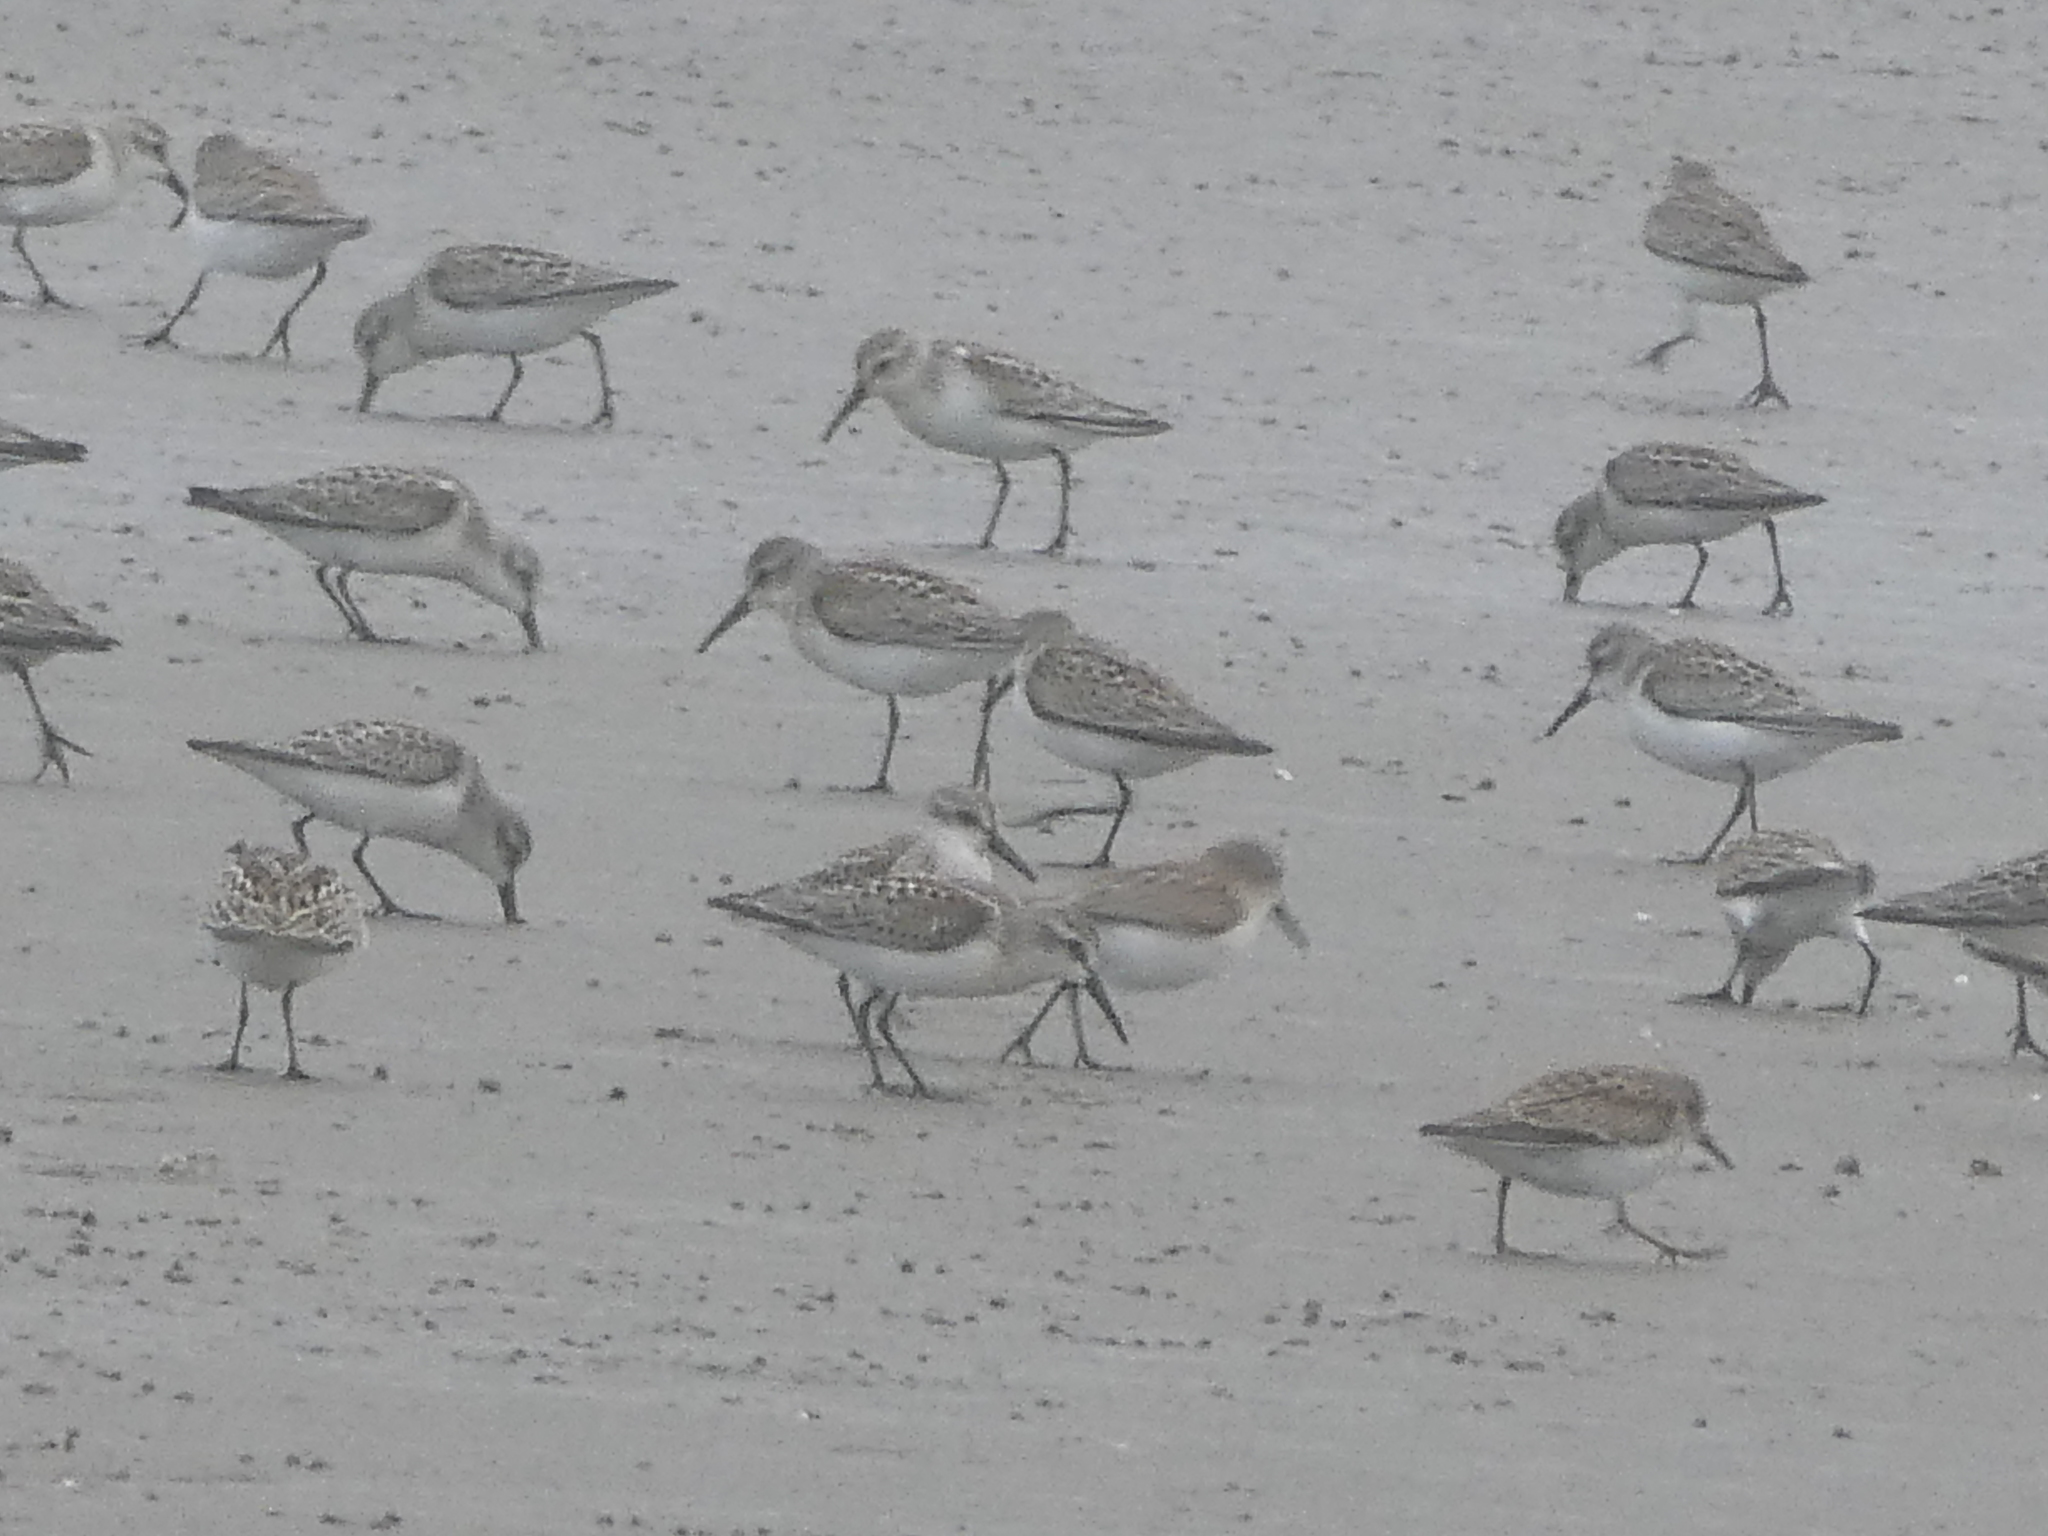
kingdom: Animalia
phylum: Chordata
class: Aves
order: Charadriiformes
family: Scolopacidae
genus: Calidris
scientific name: Calidris mauri
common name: Western sandpiper
